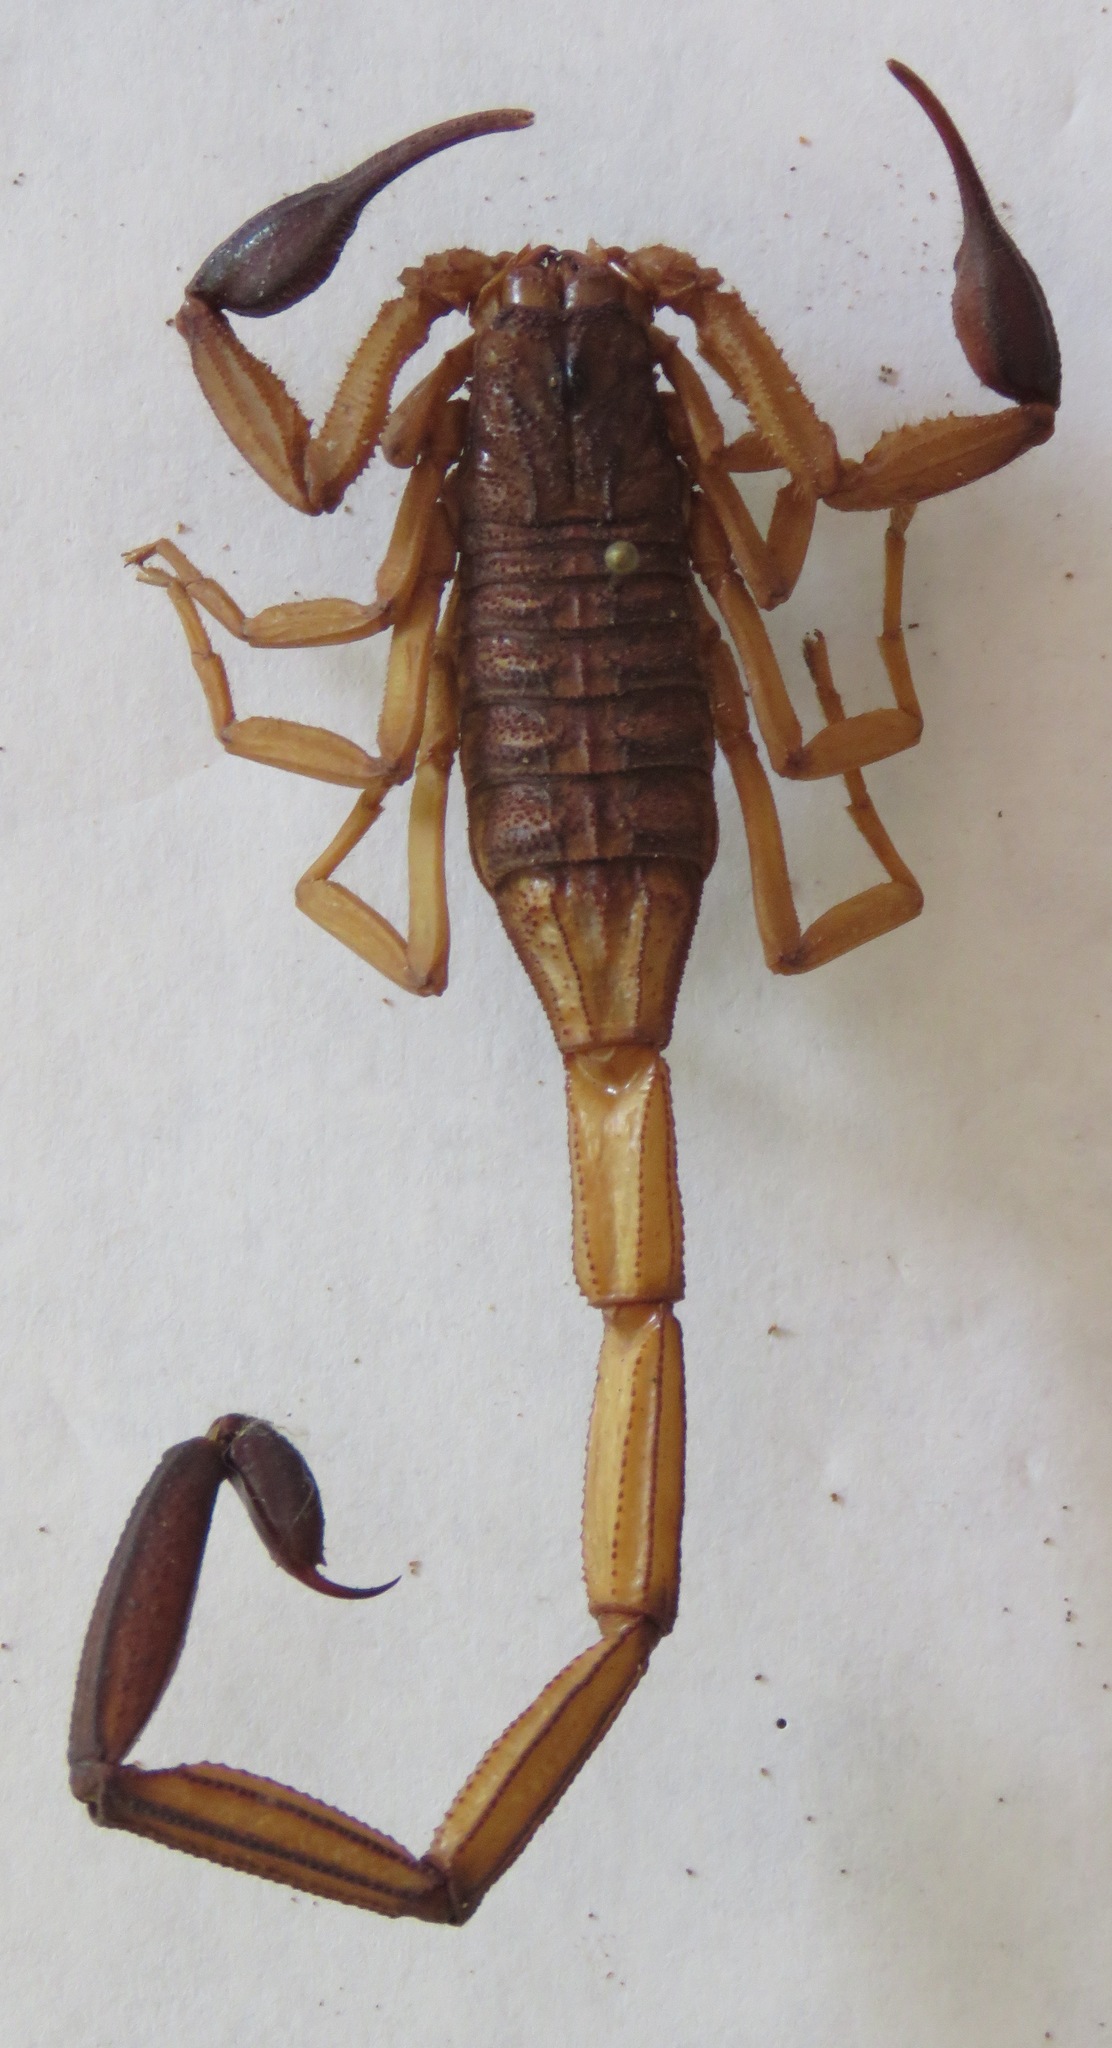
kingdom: Animalia
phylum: Arthropoda
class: Arachnida
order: Scorpiones
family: Buthidae
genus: Centruroides
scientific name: Centruroides edwardsii
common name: Scorpions
